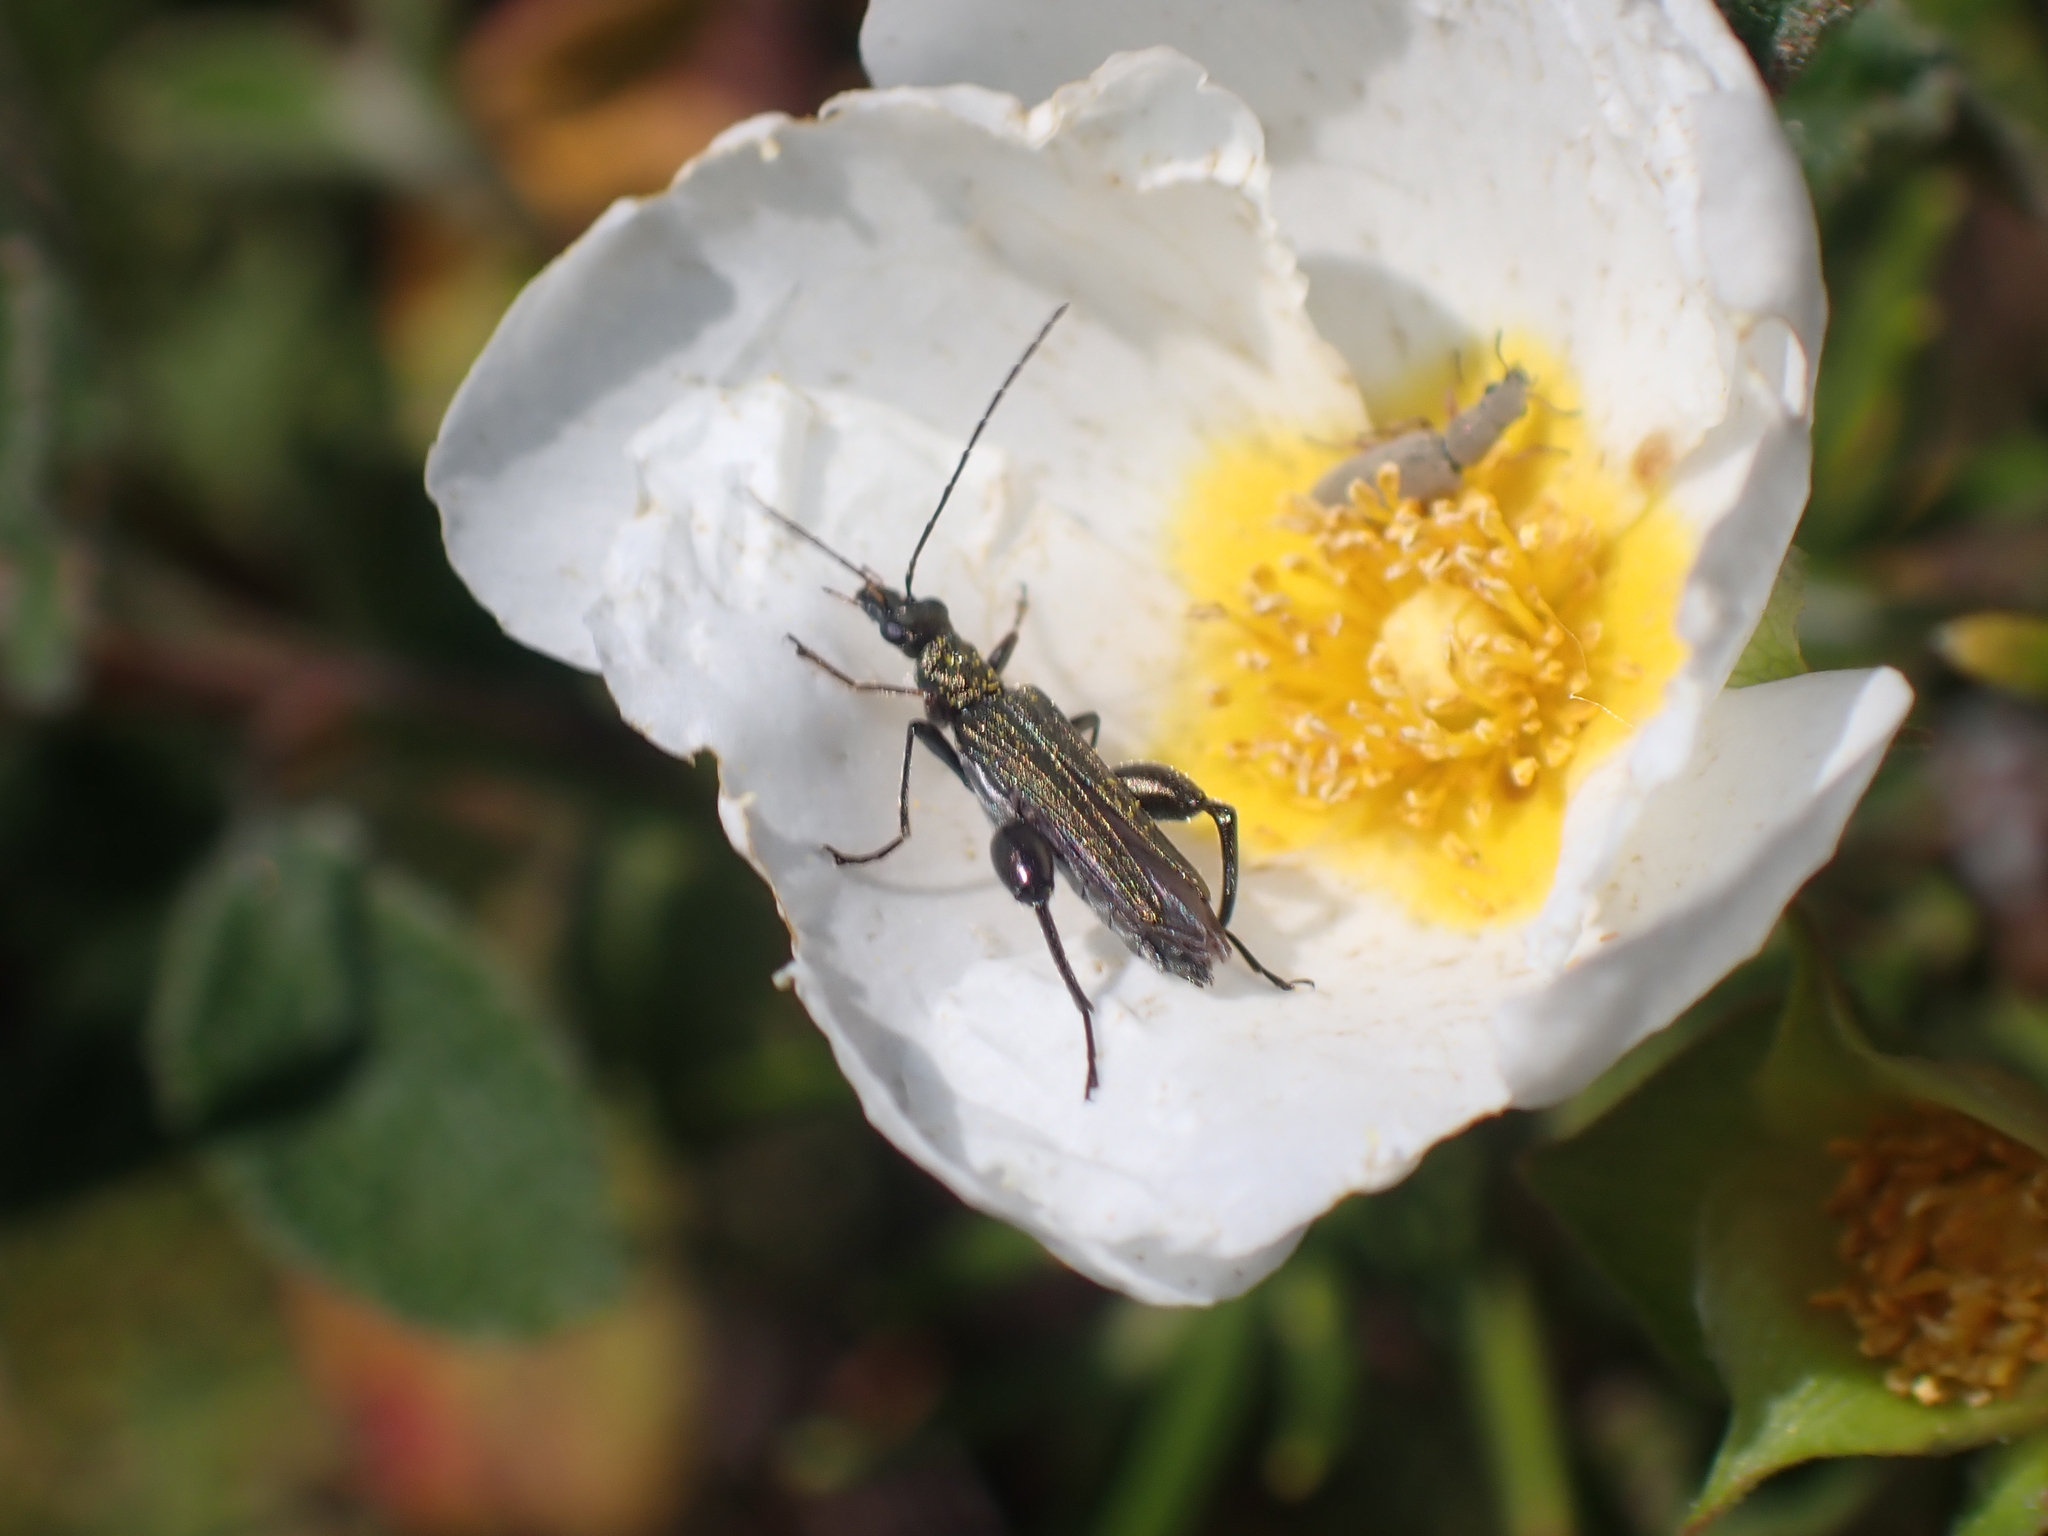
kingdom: Animalia
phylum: Arthropoda
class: Insecta
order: Coleoptera
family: Oedemeridae
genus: Oedemera
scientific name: Oedemera flavipes
